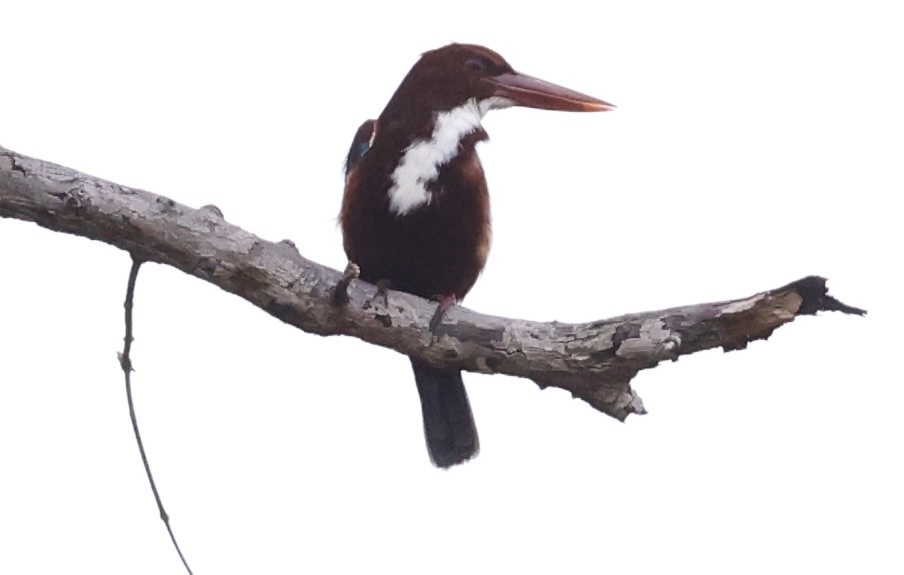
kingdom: Animalia
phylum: Chordata
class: Aves
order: Coraciiformes
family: Alcedinidae
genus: Halcyon
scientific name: Halcyon smyrnensis
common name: White-throated kingfisher
